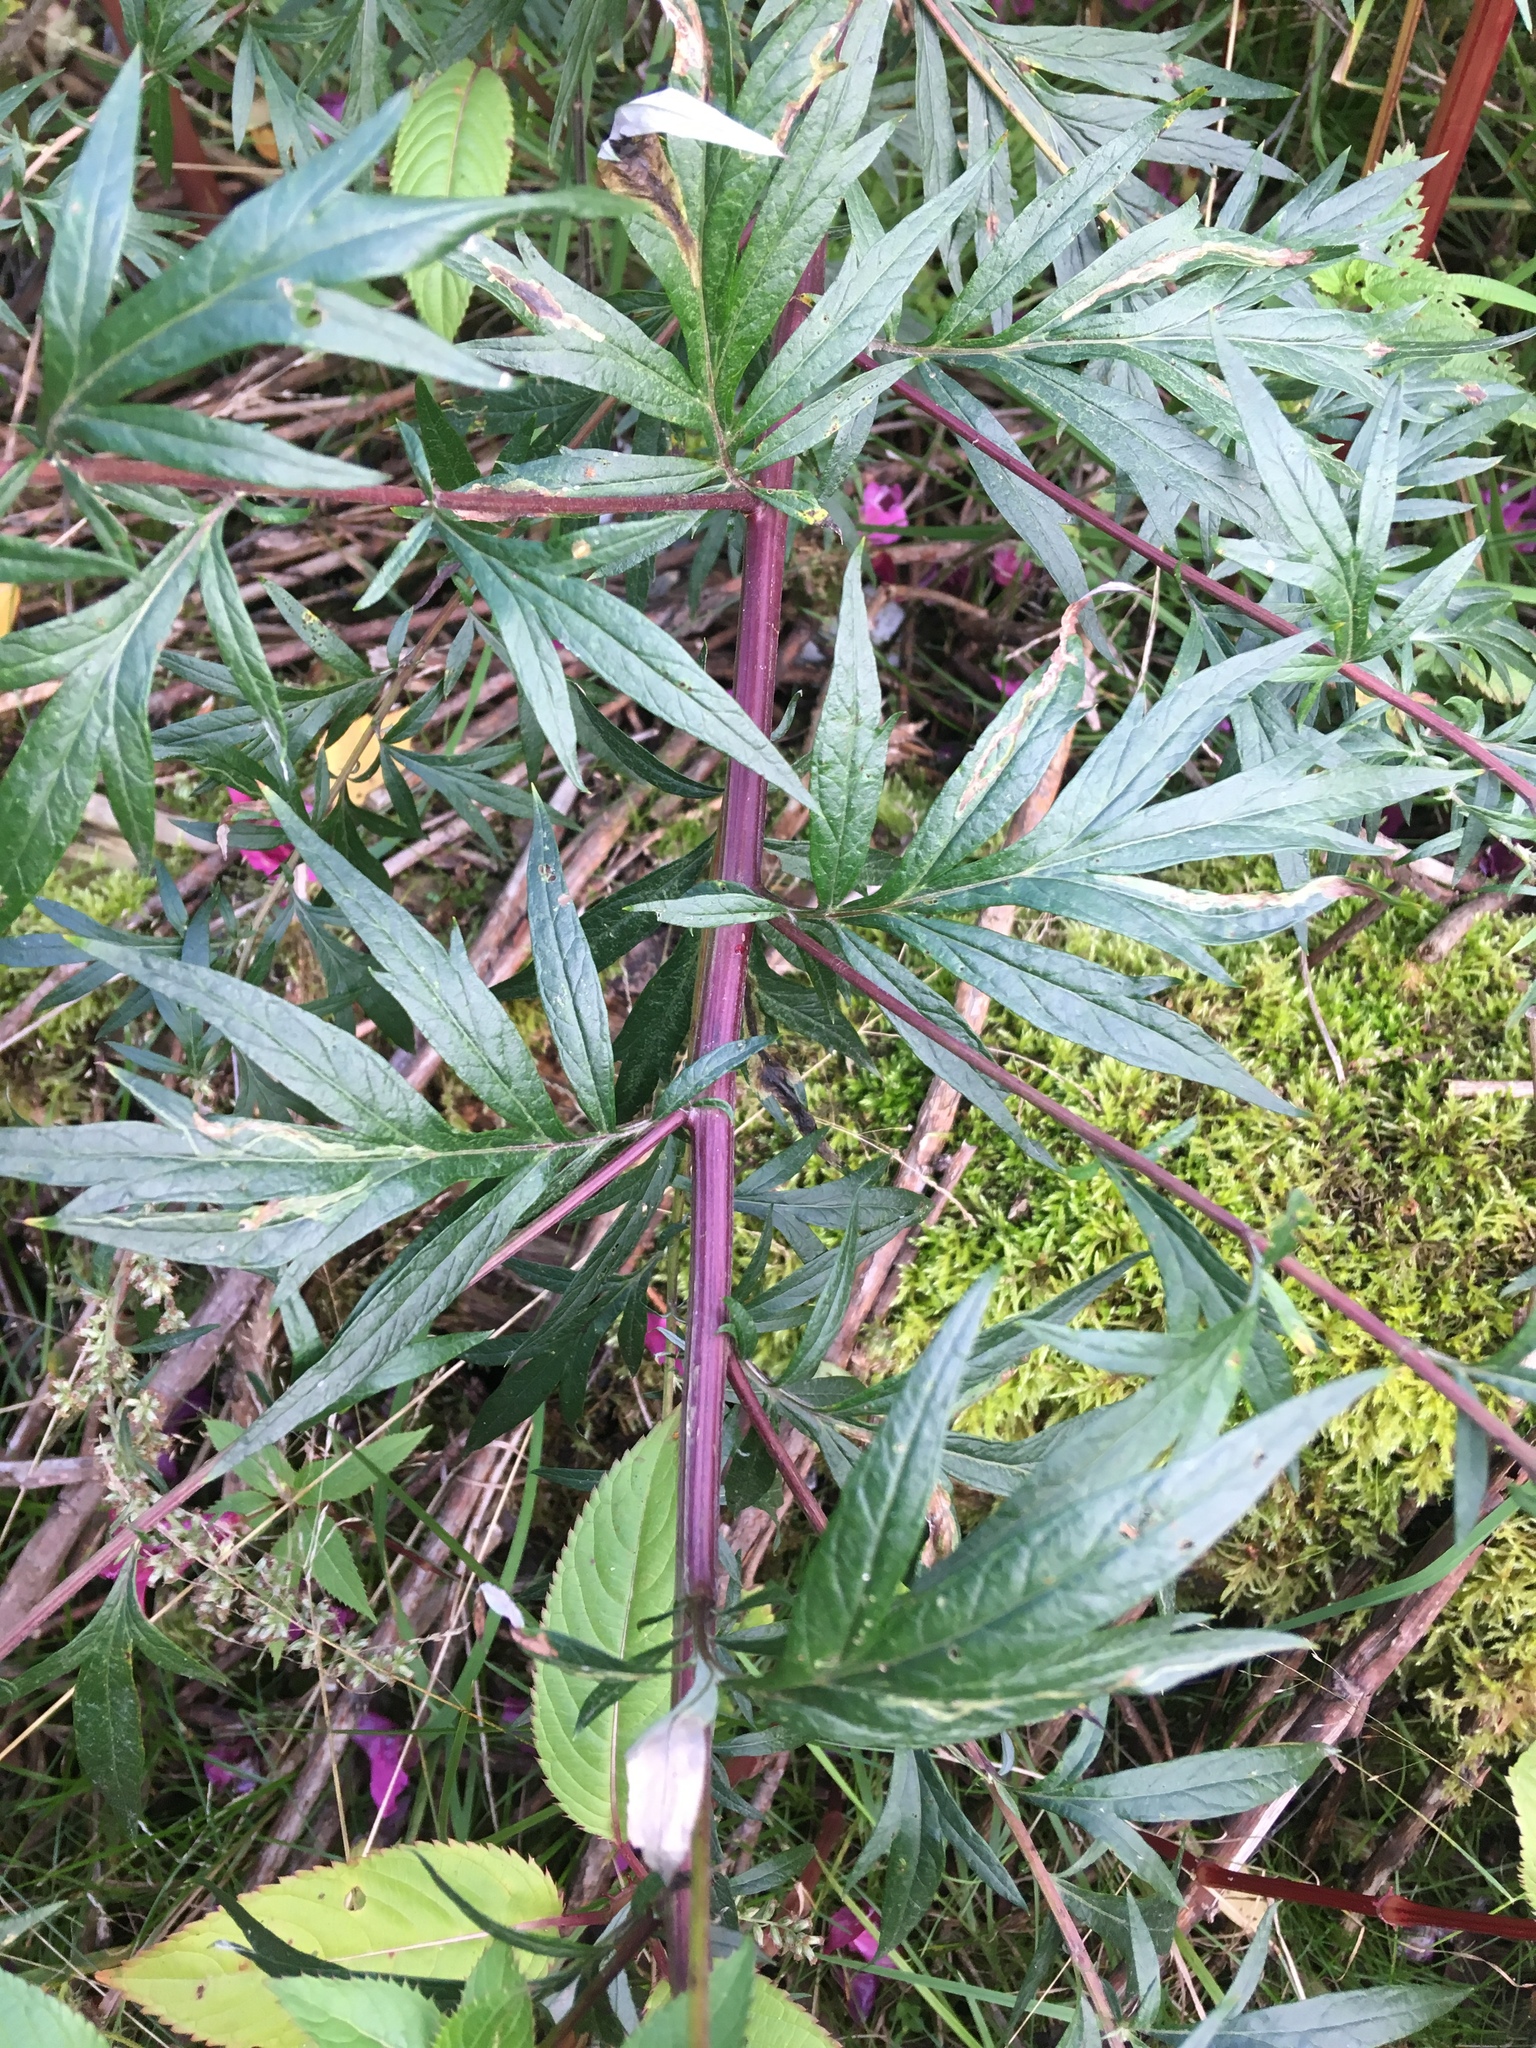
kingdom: Plantae
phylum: Tracheophyta
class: Magnoliopsida
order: Asterales
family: Asteraceae
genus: Artemisia
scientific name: Artemisia vulgaris
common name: Mugwort
